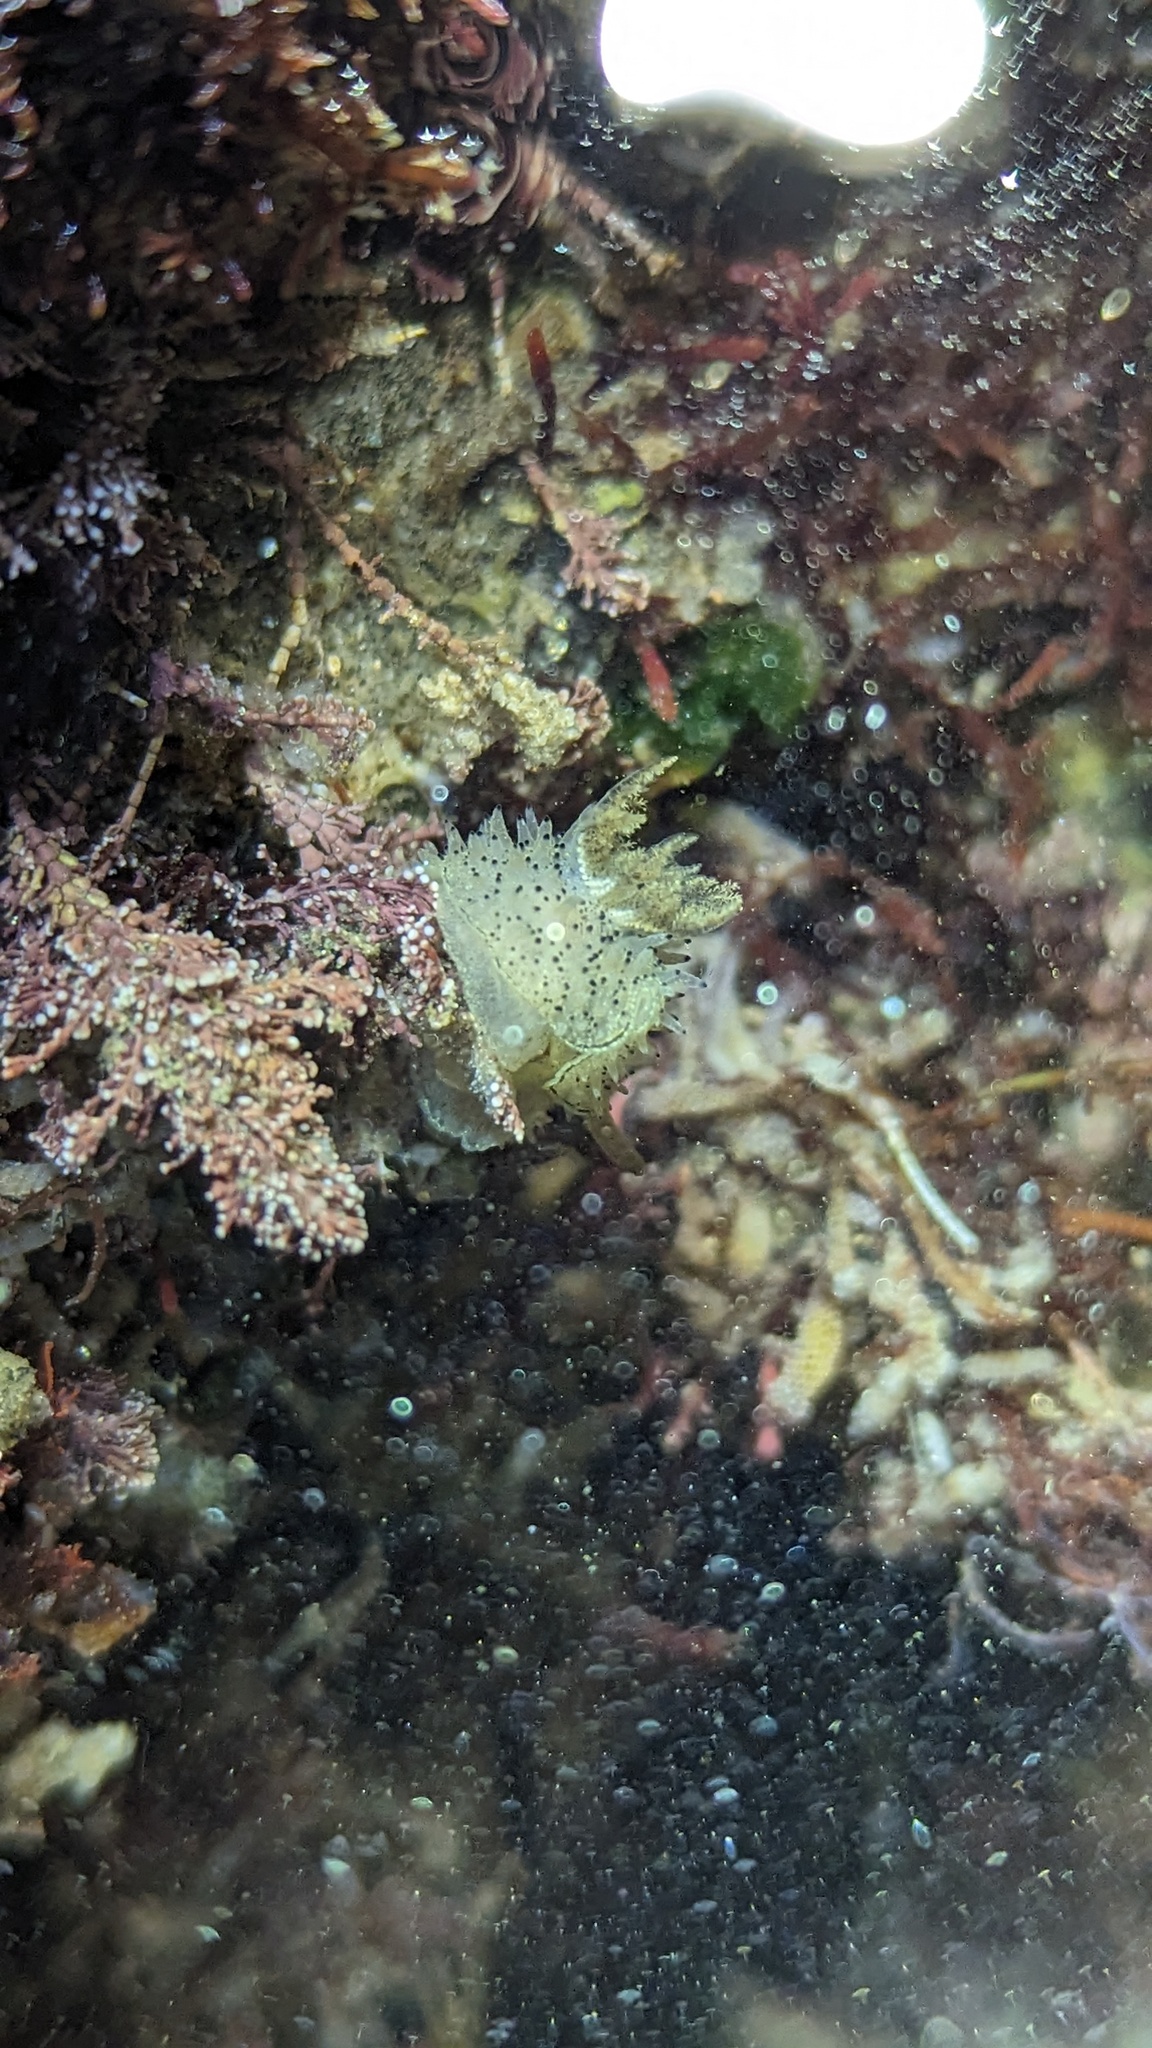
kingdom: Animalia
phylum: Mollusca
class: Gastropoda
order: Nudibranchia
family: Onchidorididae
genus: Acanthodoris
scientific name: Acanthodoris rhodoceras
